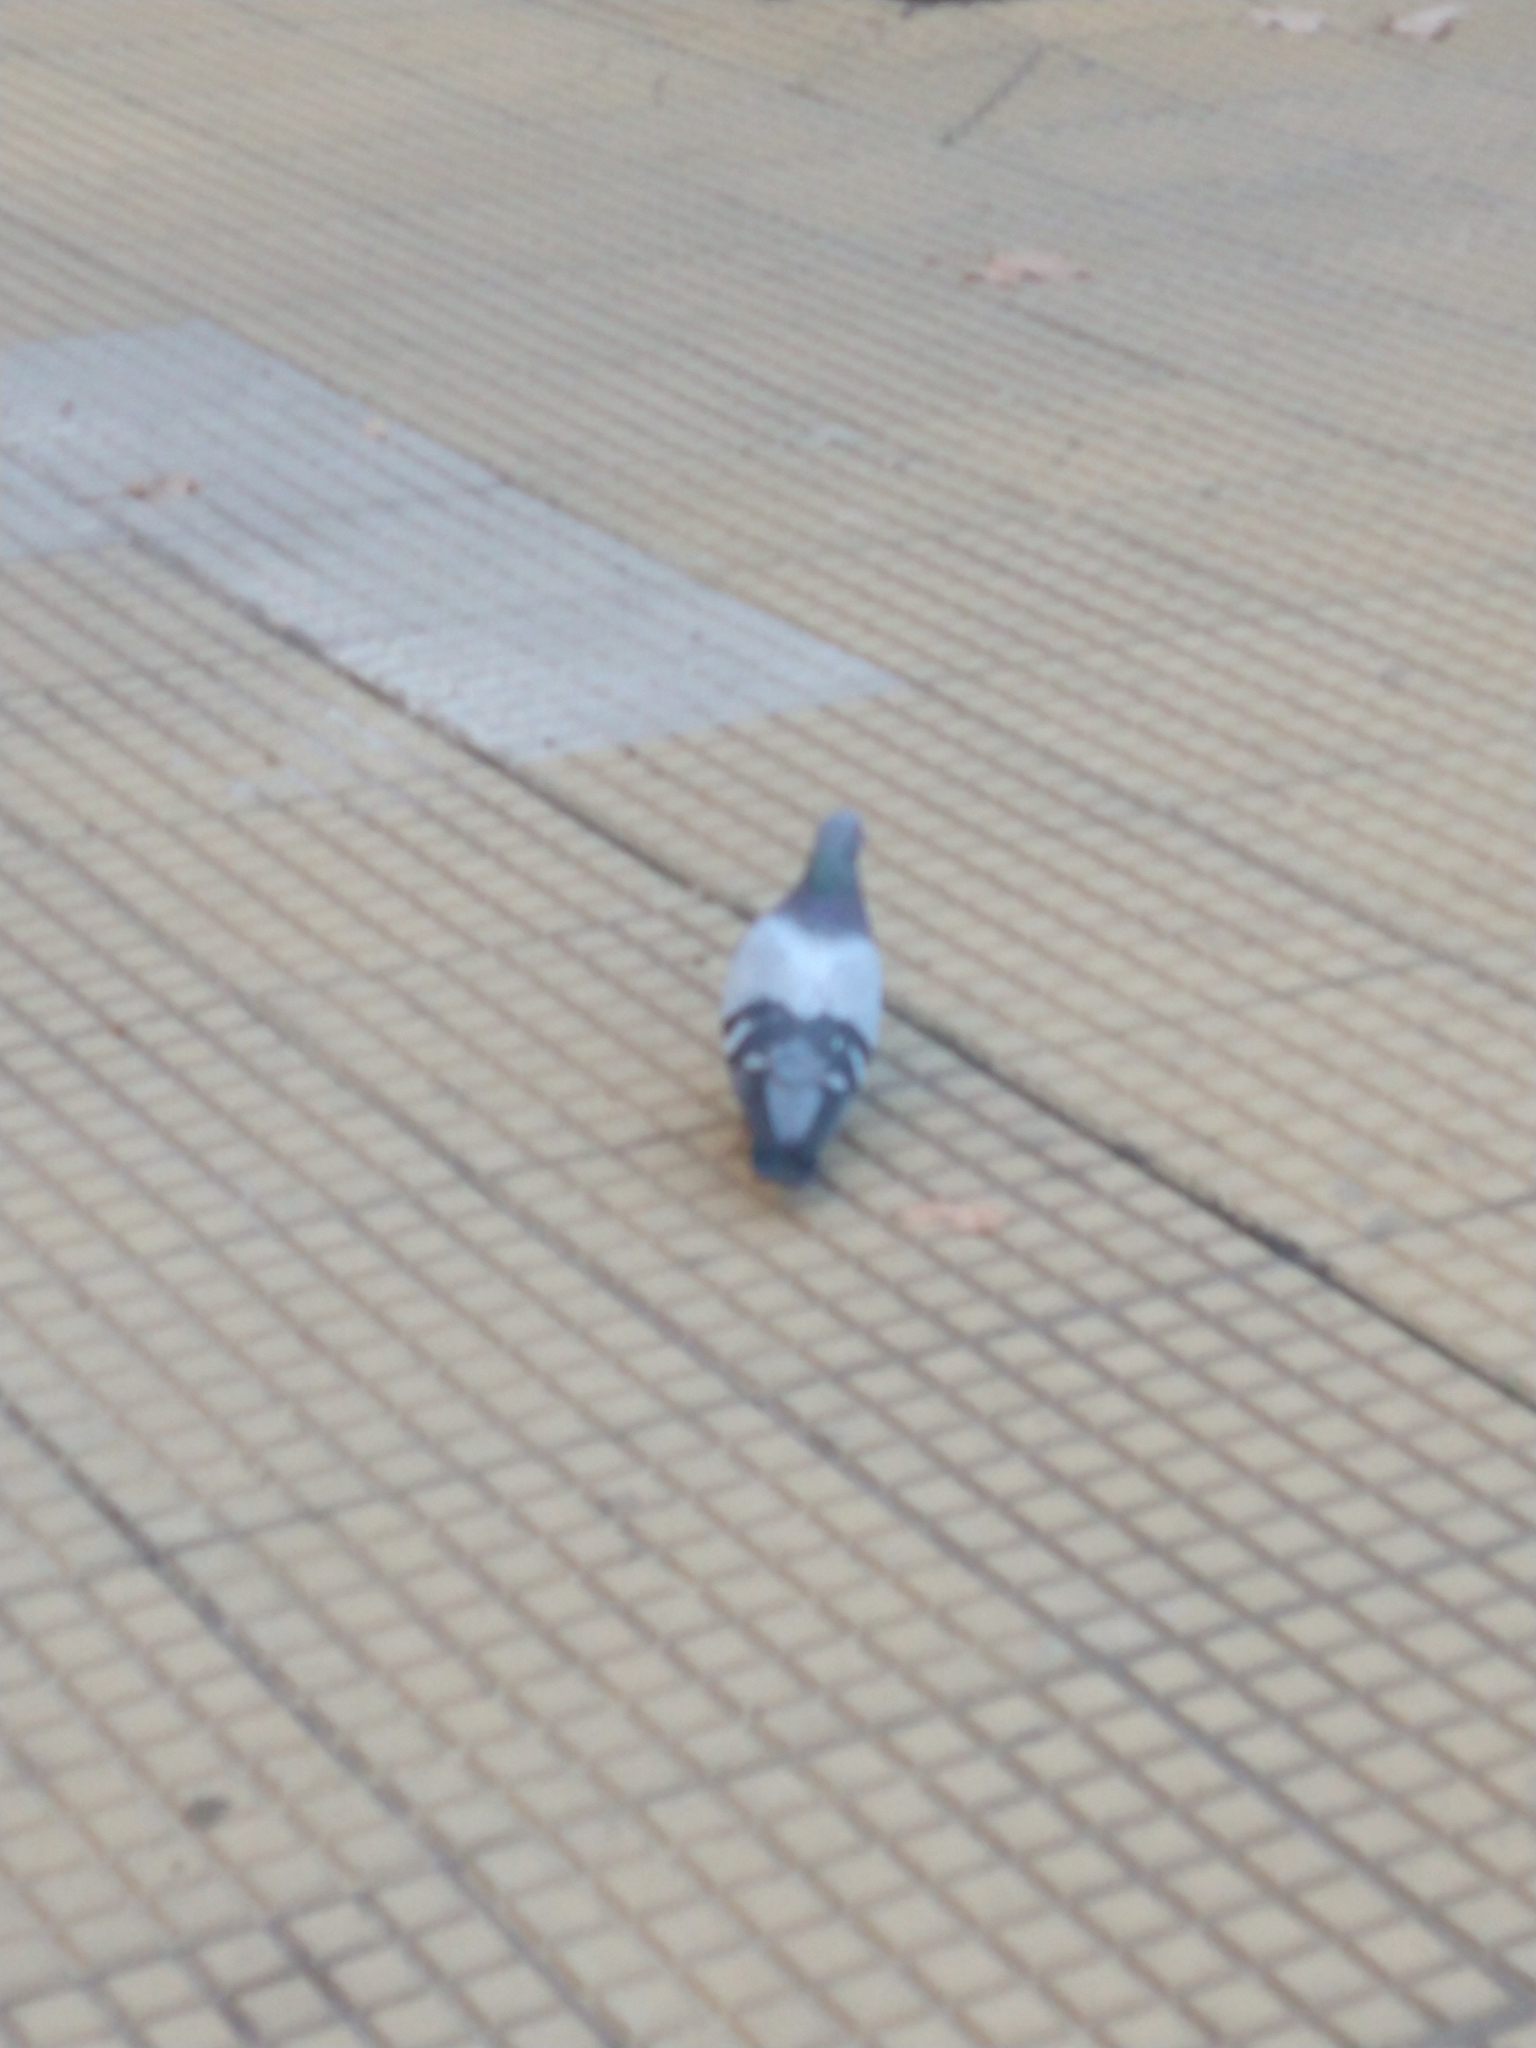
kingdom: Animalia
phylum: Chordata
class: Aves
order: Columbiformes
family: Columbidae
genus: Columba
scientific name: Columba livia
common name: Rock pigeon
